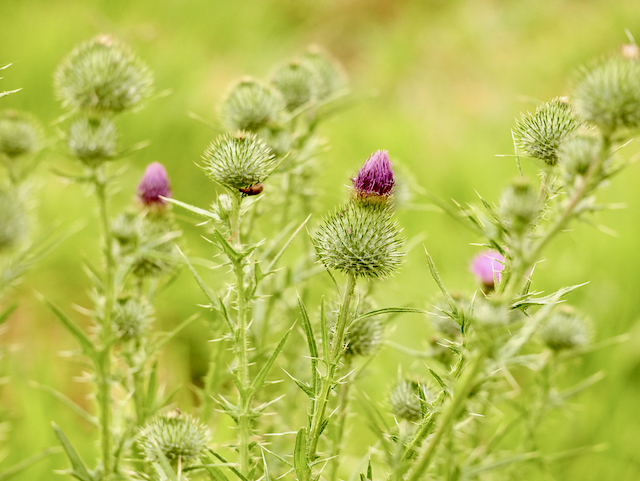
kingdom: Plantae
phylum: Tracheophyta
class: Magnoliopsida
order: Asterales
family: Asteraceae
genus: Cirsium
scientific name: Cirsium vulgare
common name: Bull thistle
